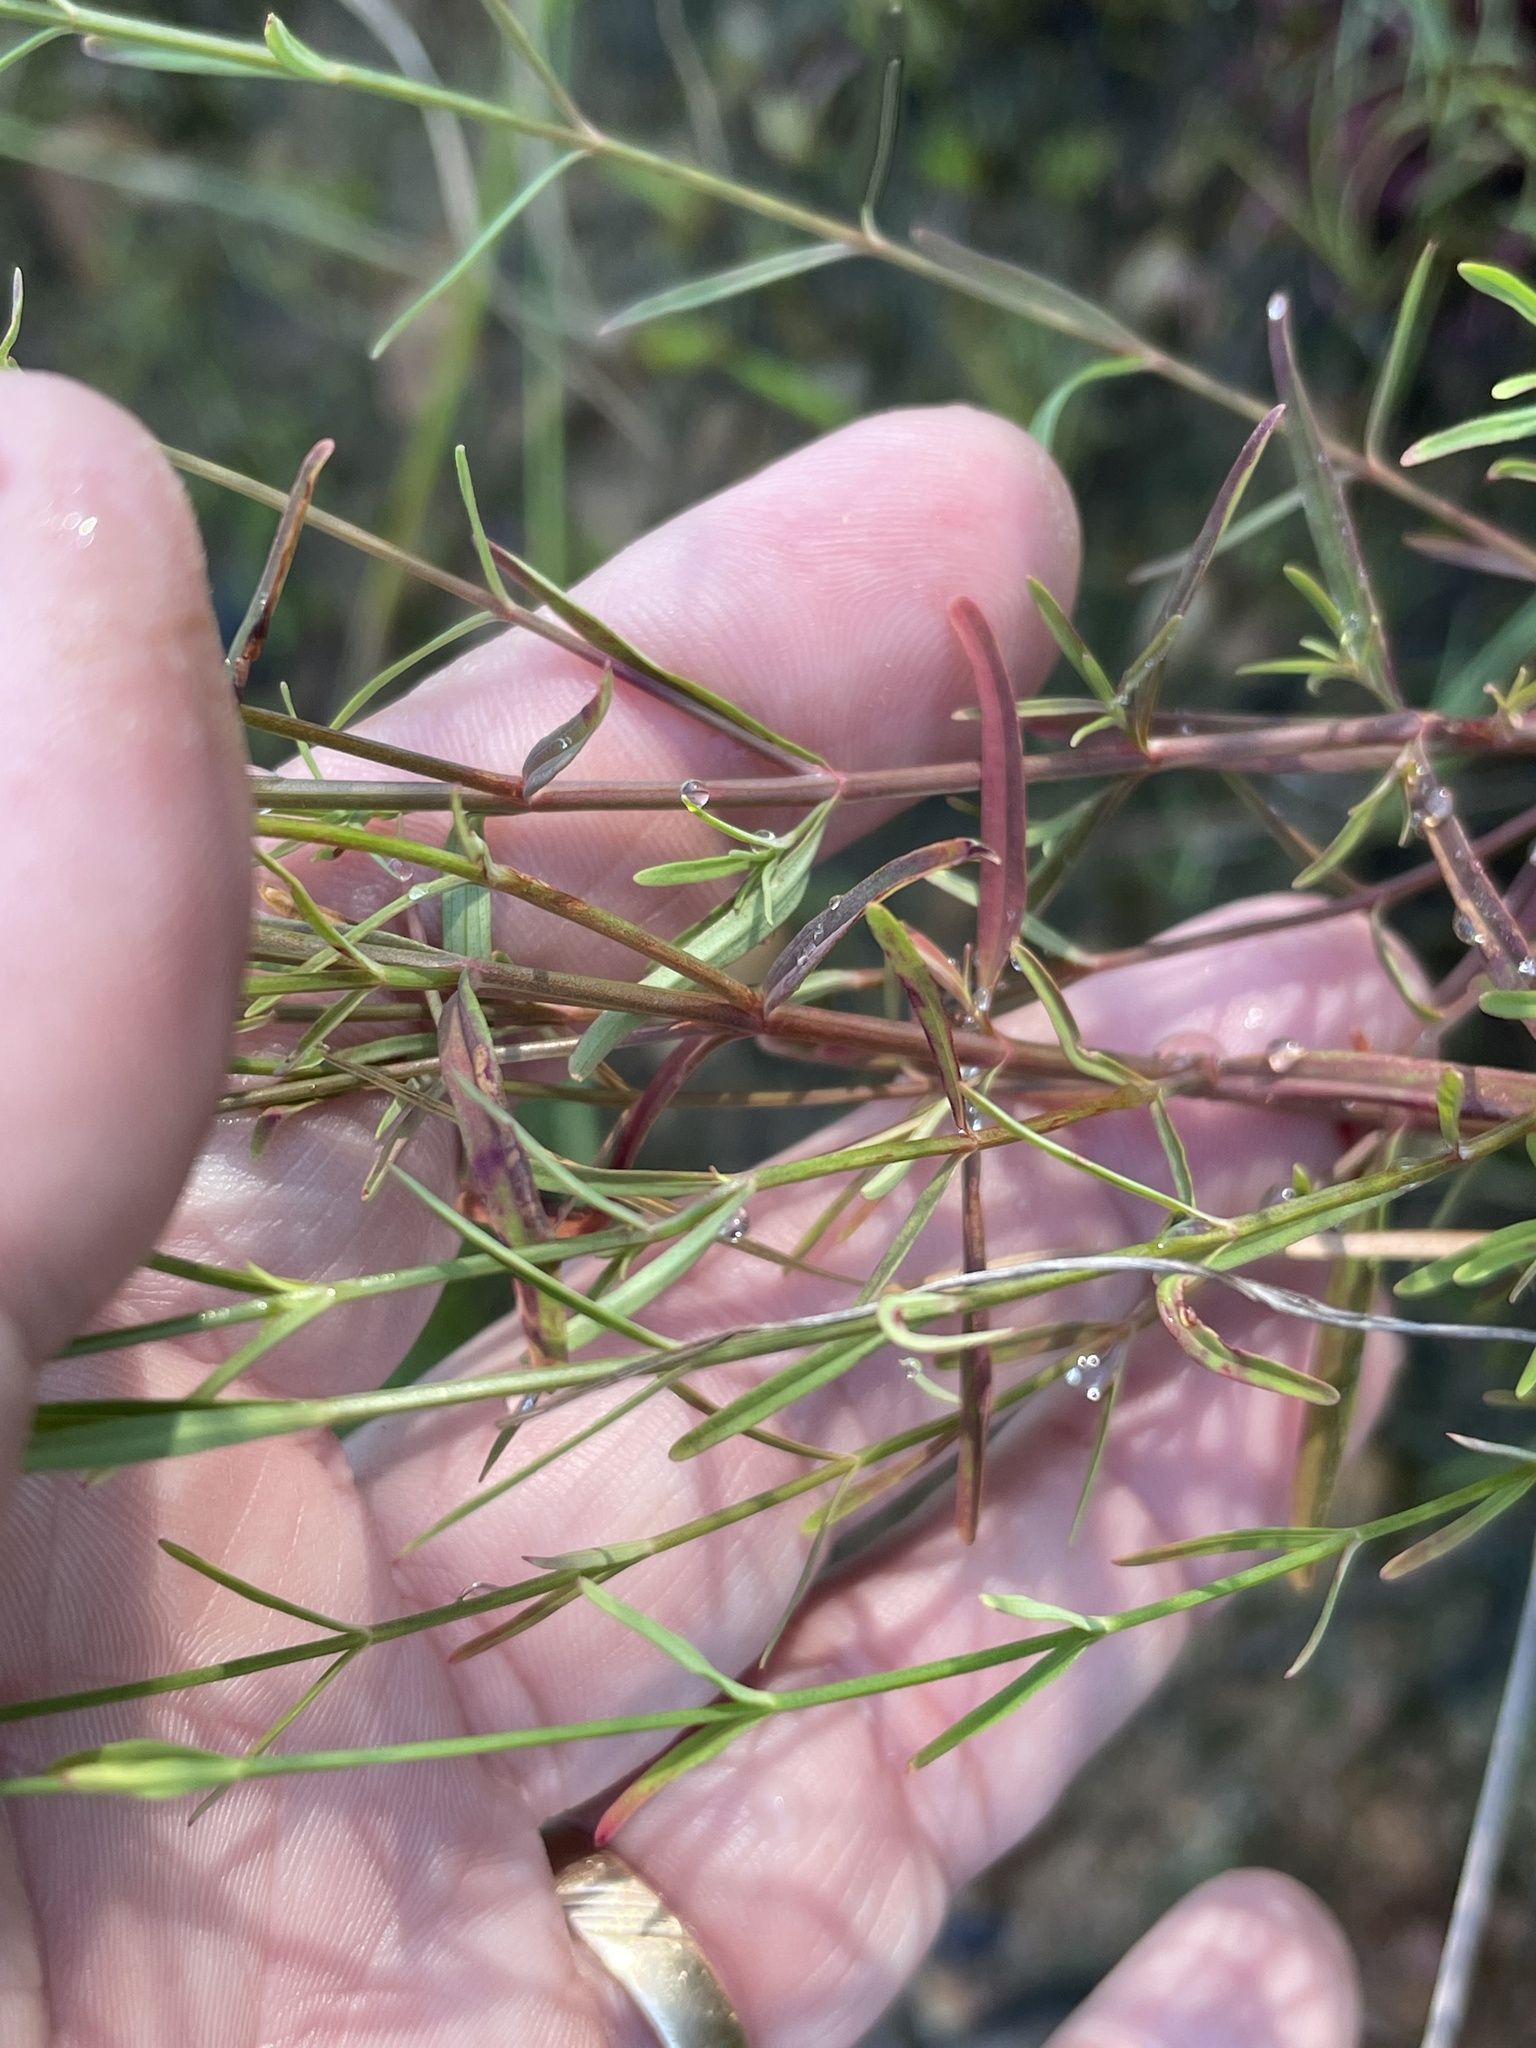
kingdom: Plantae
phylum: Tracheophyta
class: Magnoliopsida
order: Malpighiales
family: Hypericaceae
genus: Hypericum
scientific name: Hypericum canadense
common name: Irish st. john's-wort
